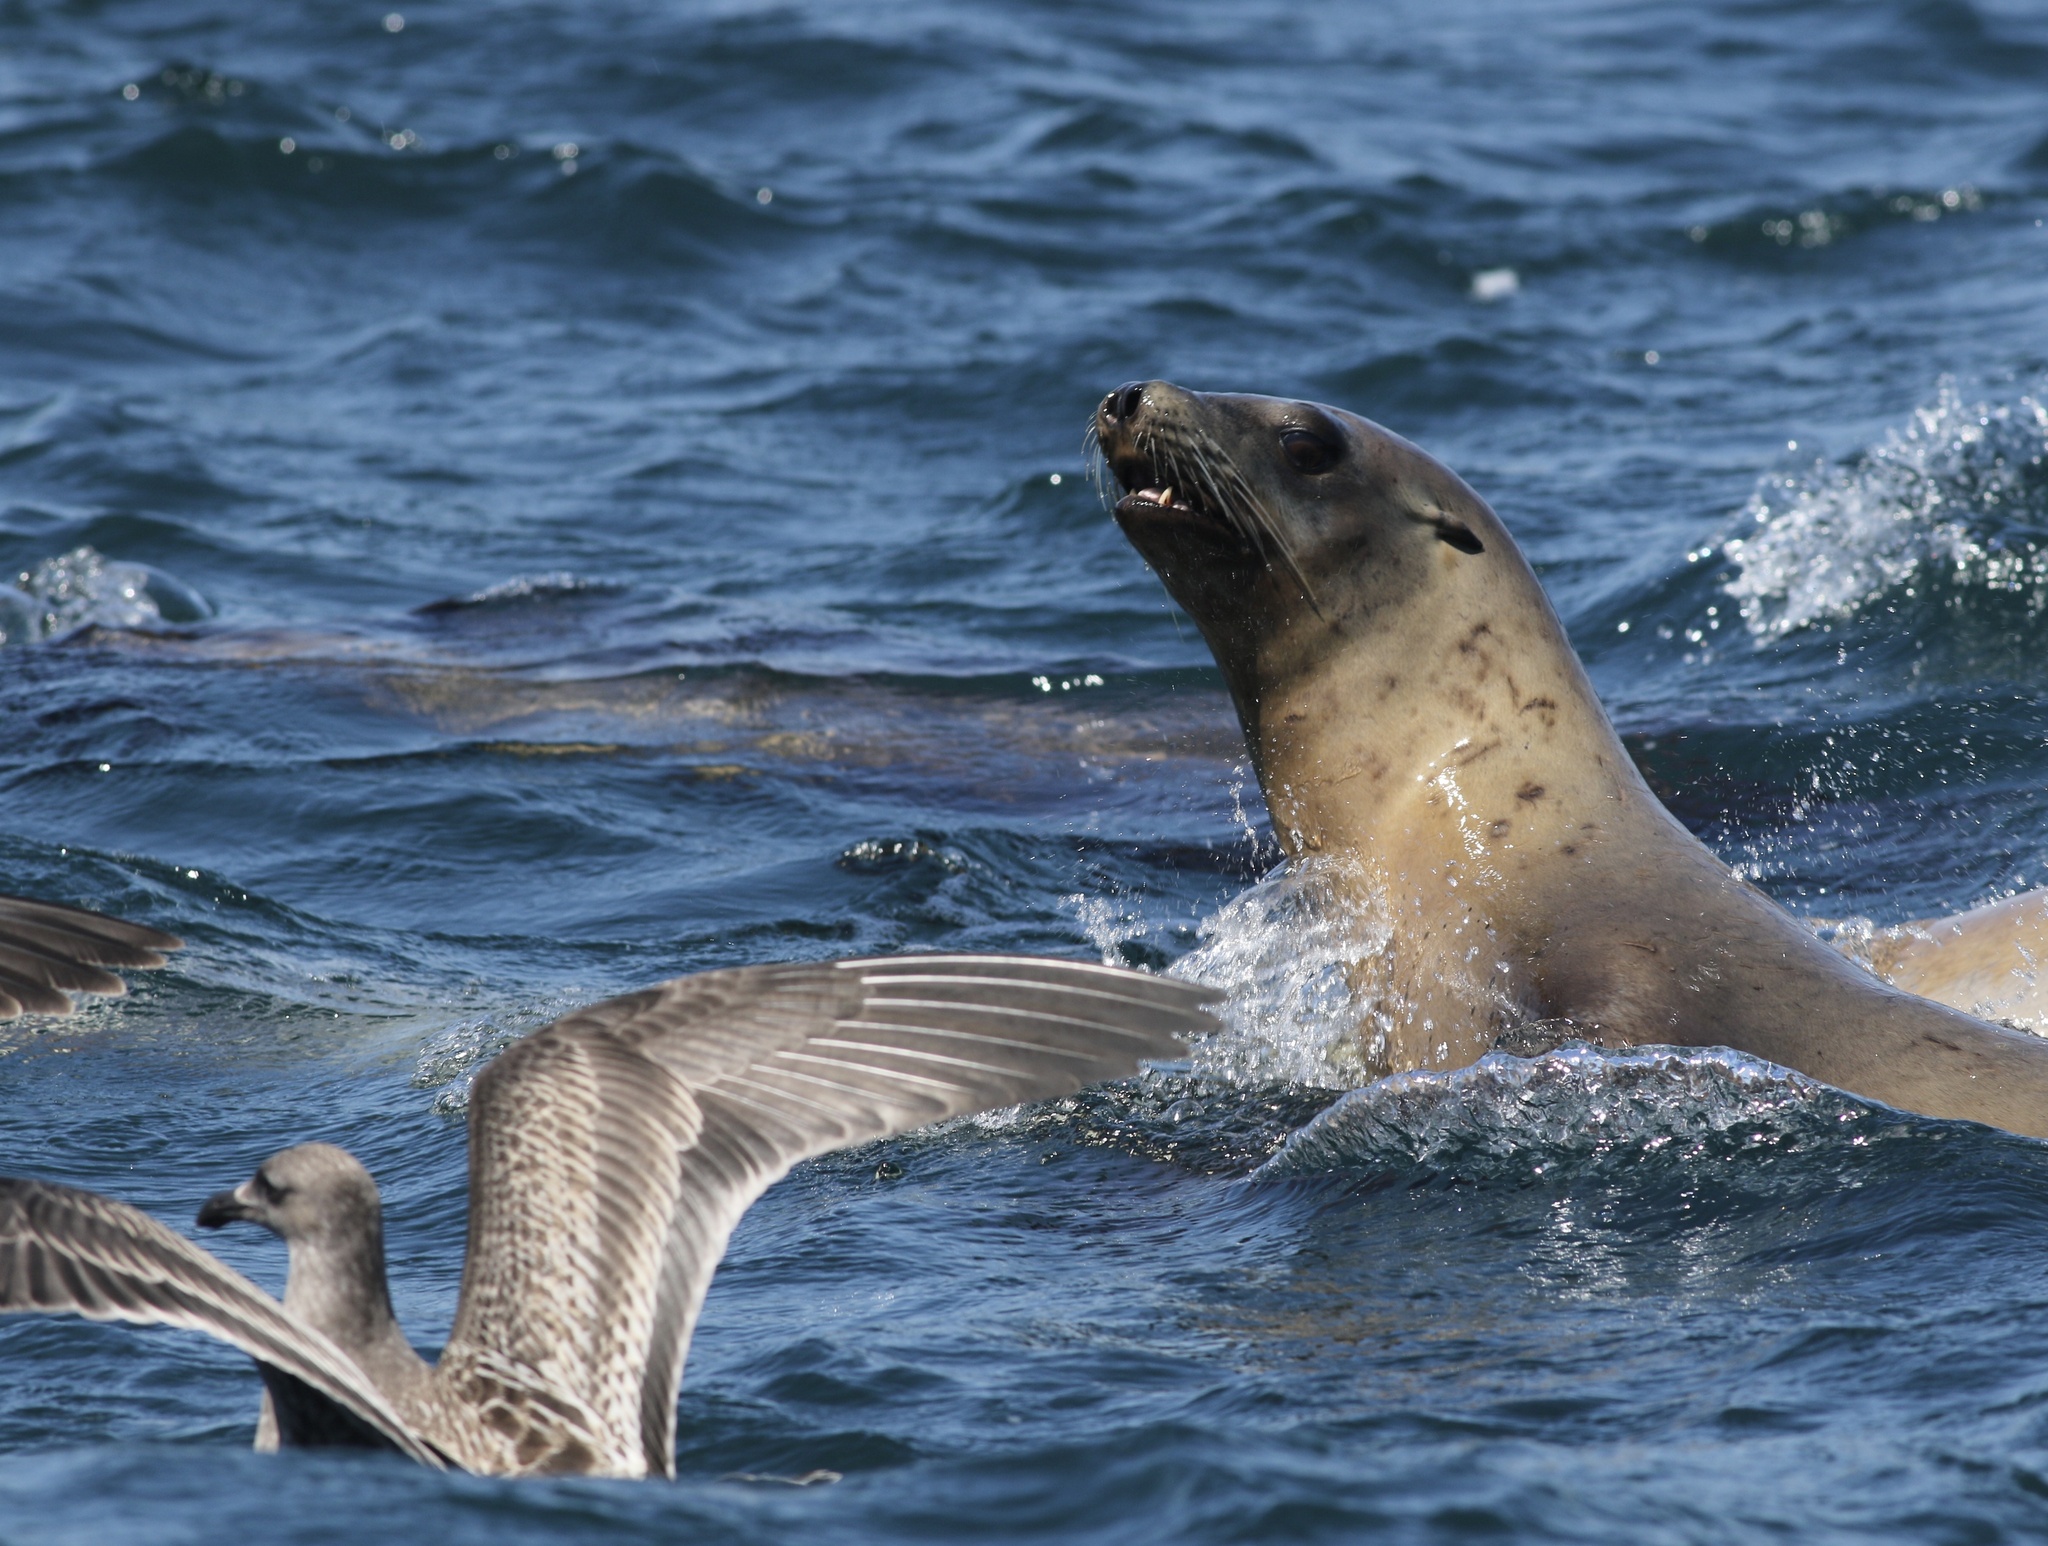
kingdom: Animalia
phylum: Chordata
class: Mammalia
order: Carnivora
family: Otariidae
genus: Zalophus
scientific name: Zalophus californianus
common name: California sea lion
